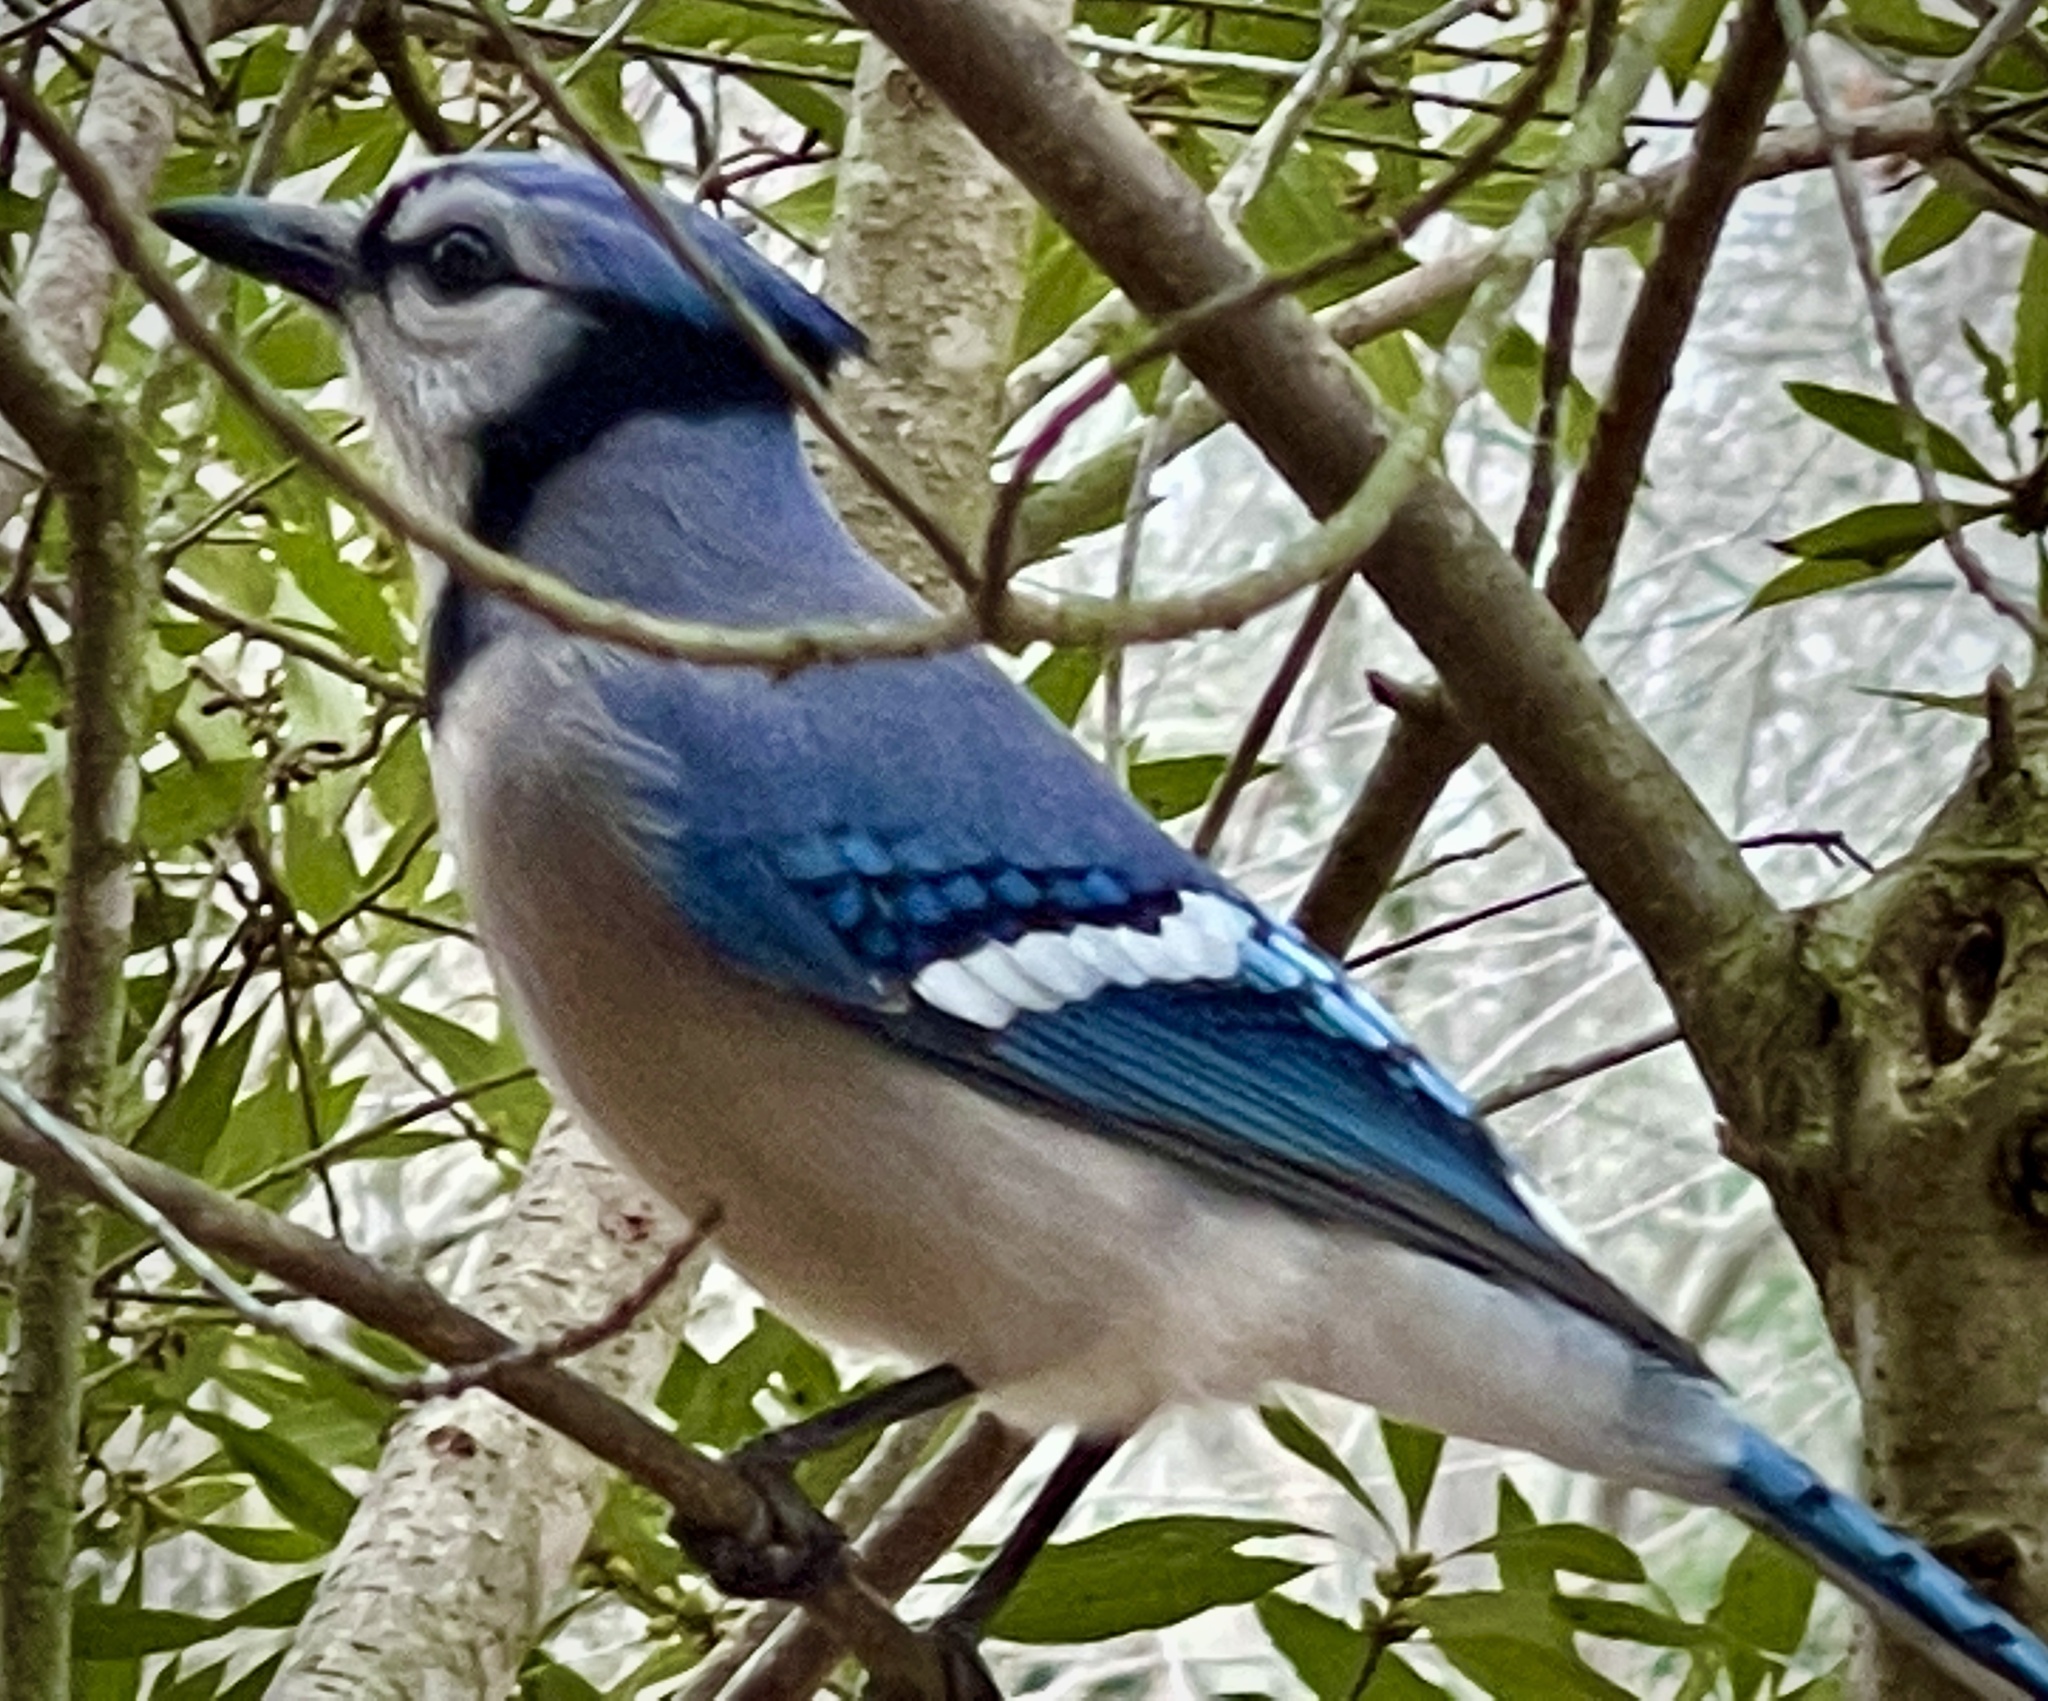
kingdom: Animalia
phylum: Chordata
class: Aves
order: Passeriformes
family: Corvidae
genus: Cyanocitta
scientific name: Cyanocitta cristata
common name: Blue jay
